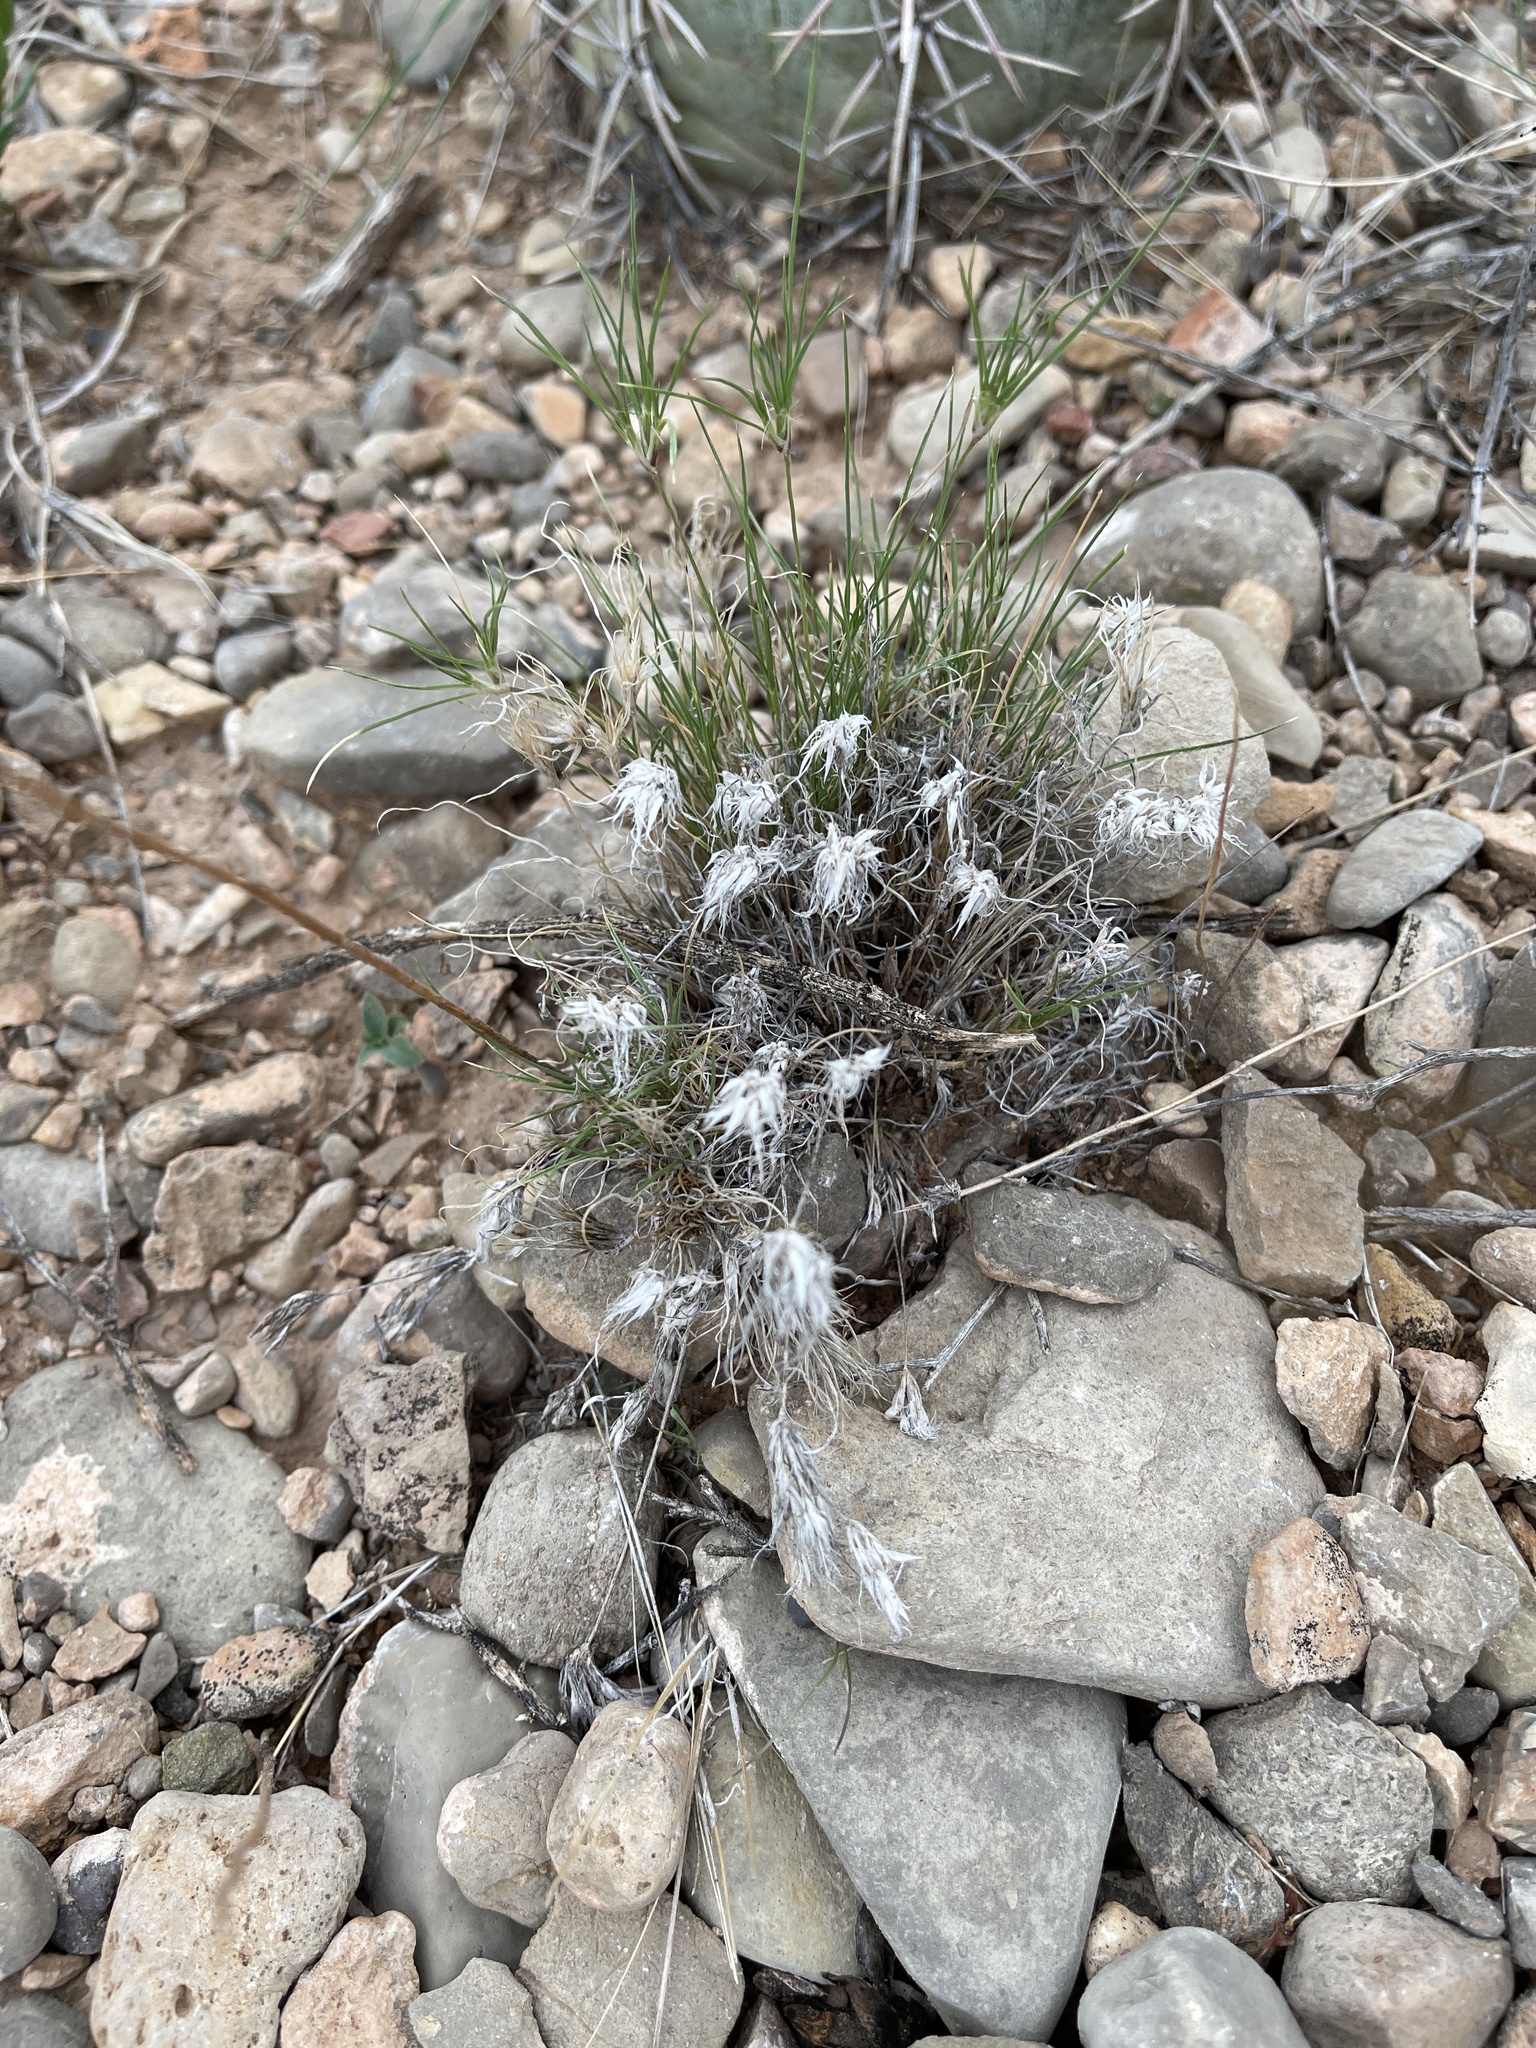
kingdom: Plantae
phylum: Tracheophyta
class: Liliopsida
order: Poales
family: Poaceae
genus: Dasyochloa
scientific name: Dasyochloa pulchella
